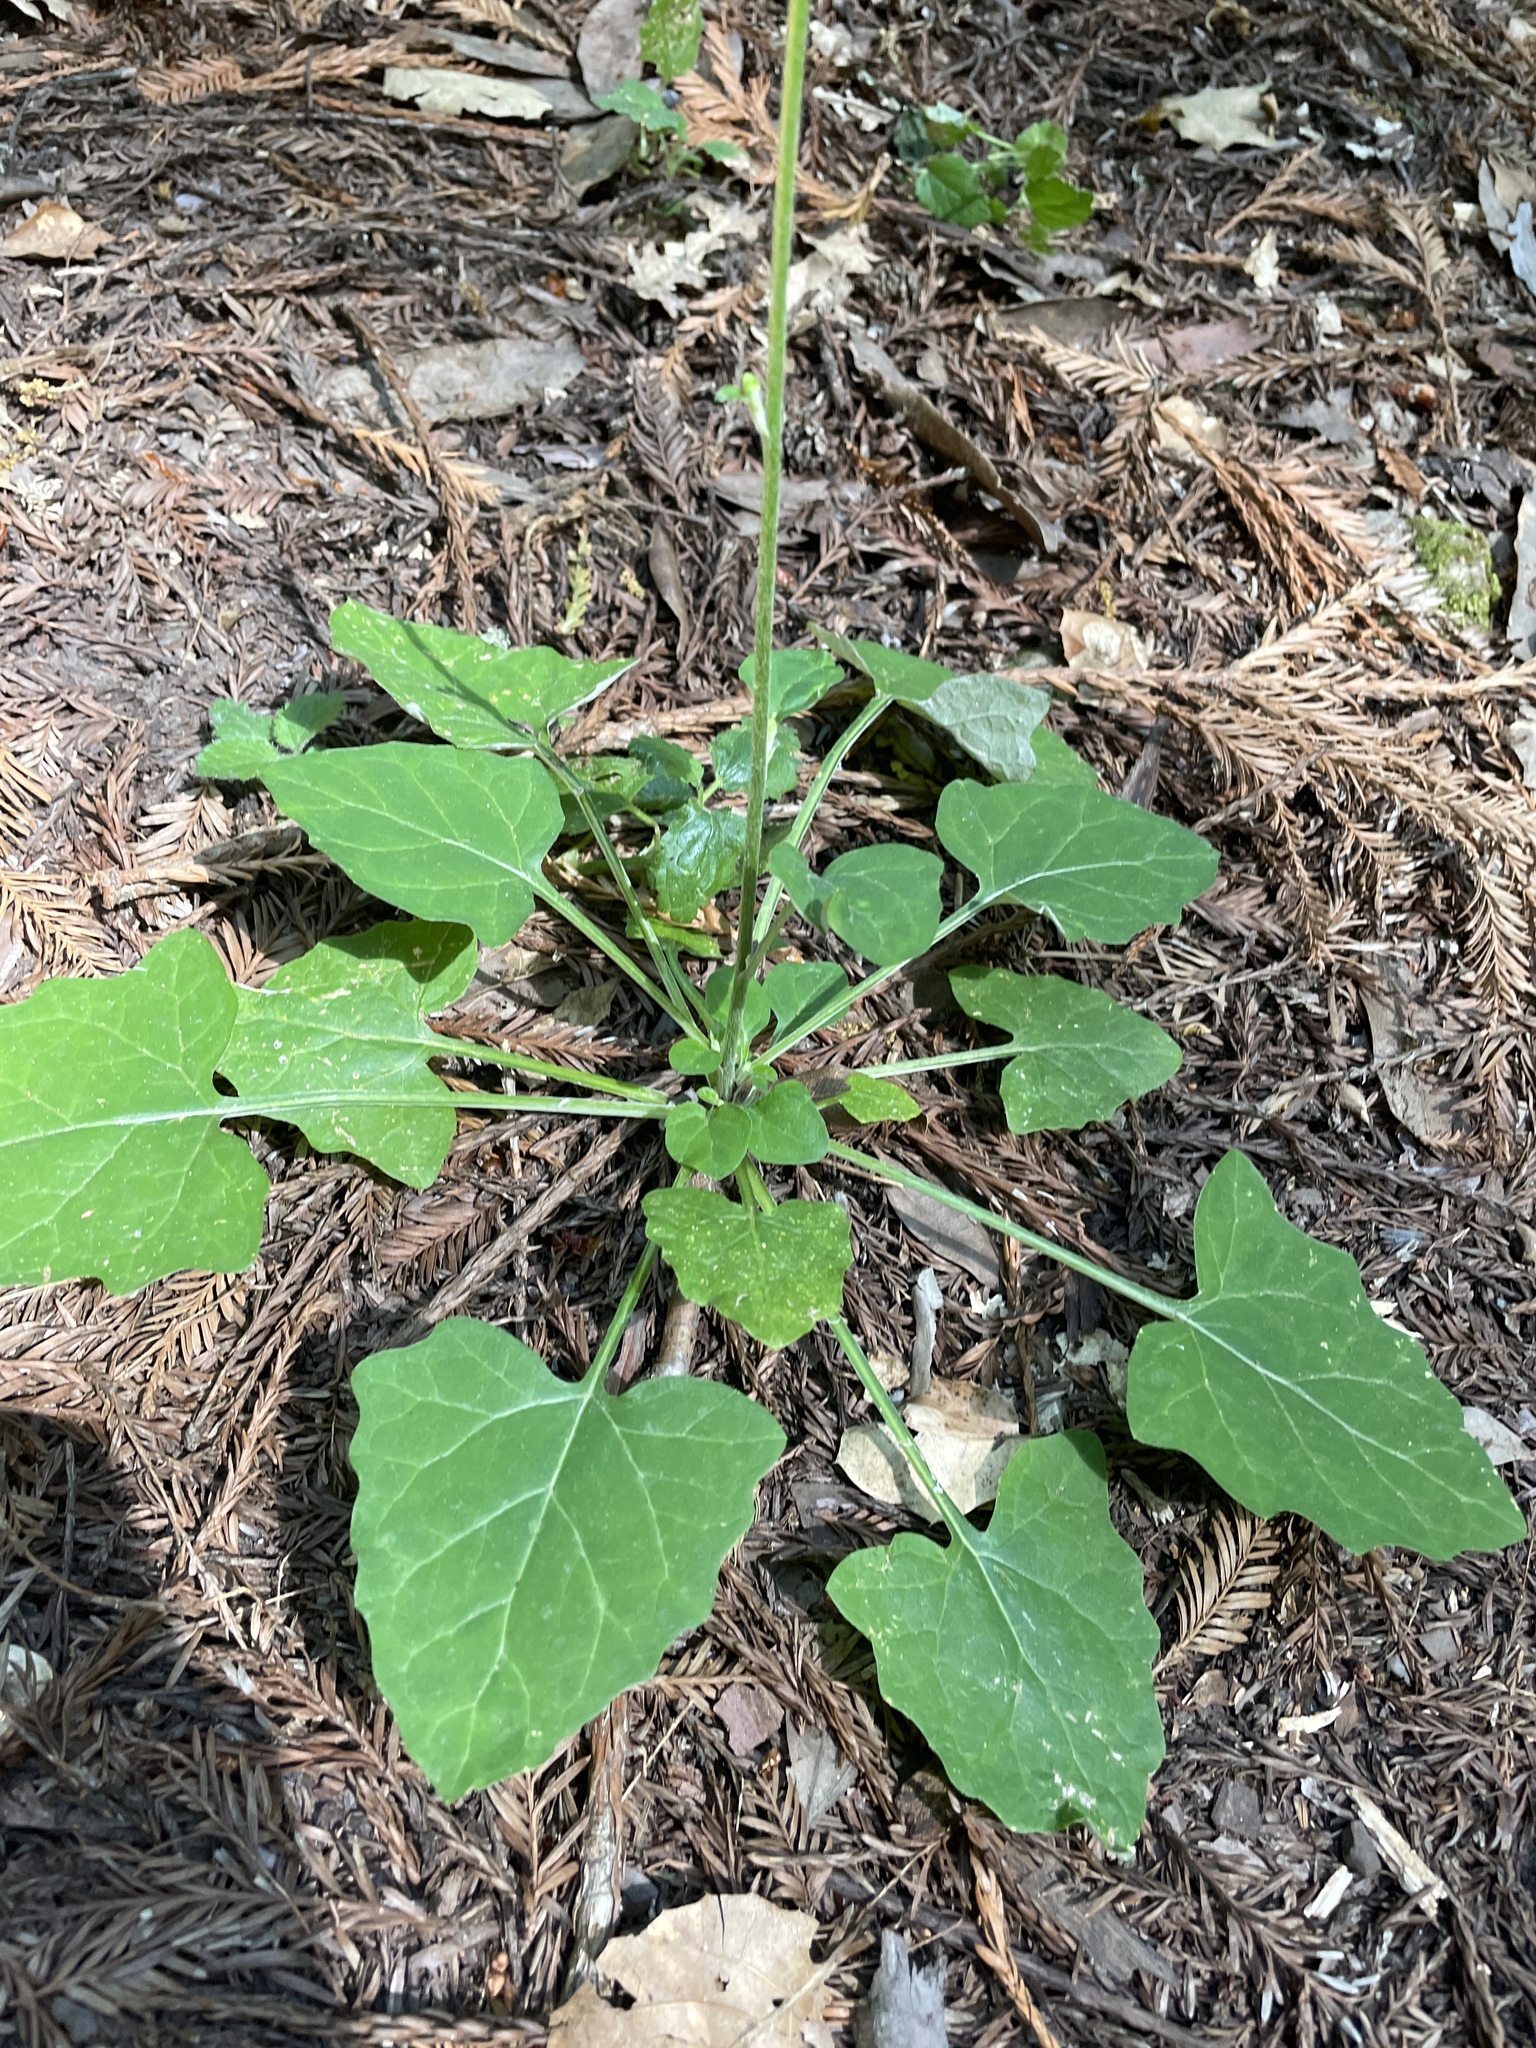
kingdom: Plantae
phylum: Tracheophyta
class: Magnoliopsida
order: Asterales
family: Asteraceae
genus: Adenocaulon
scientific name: Adenocaulon bicolor
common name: Trailplant
